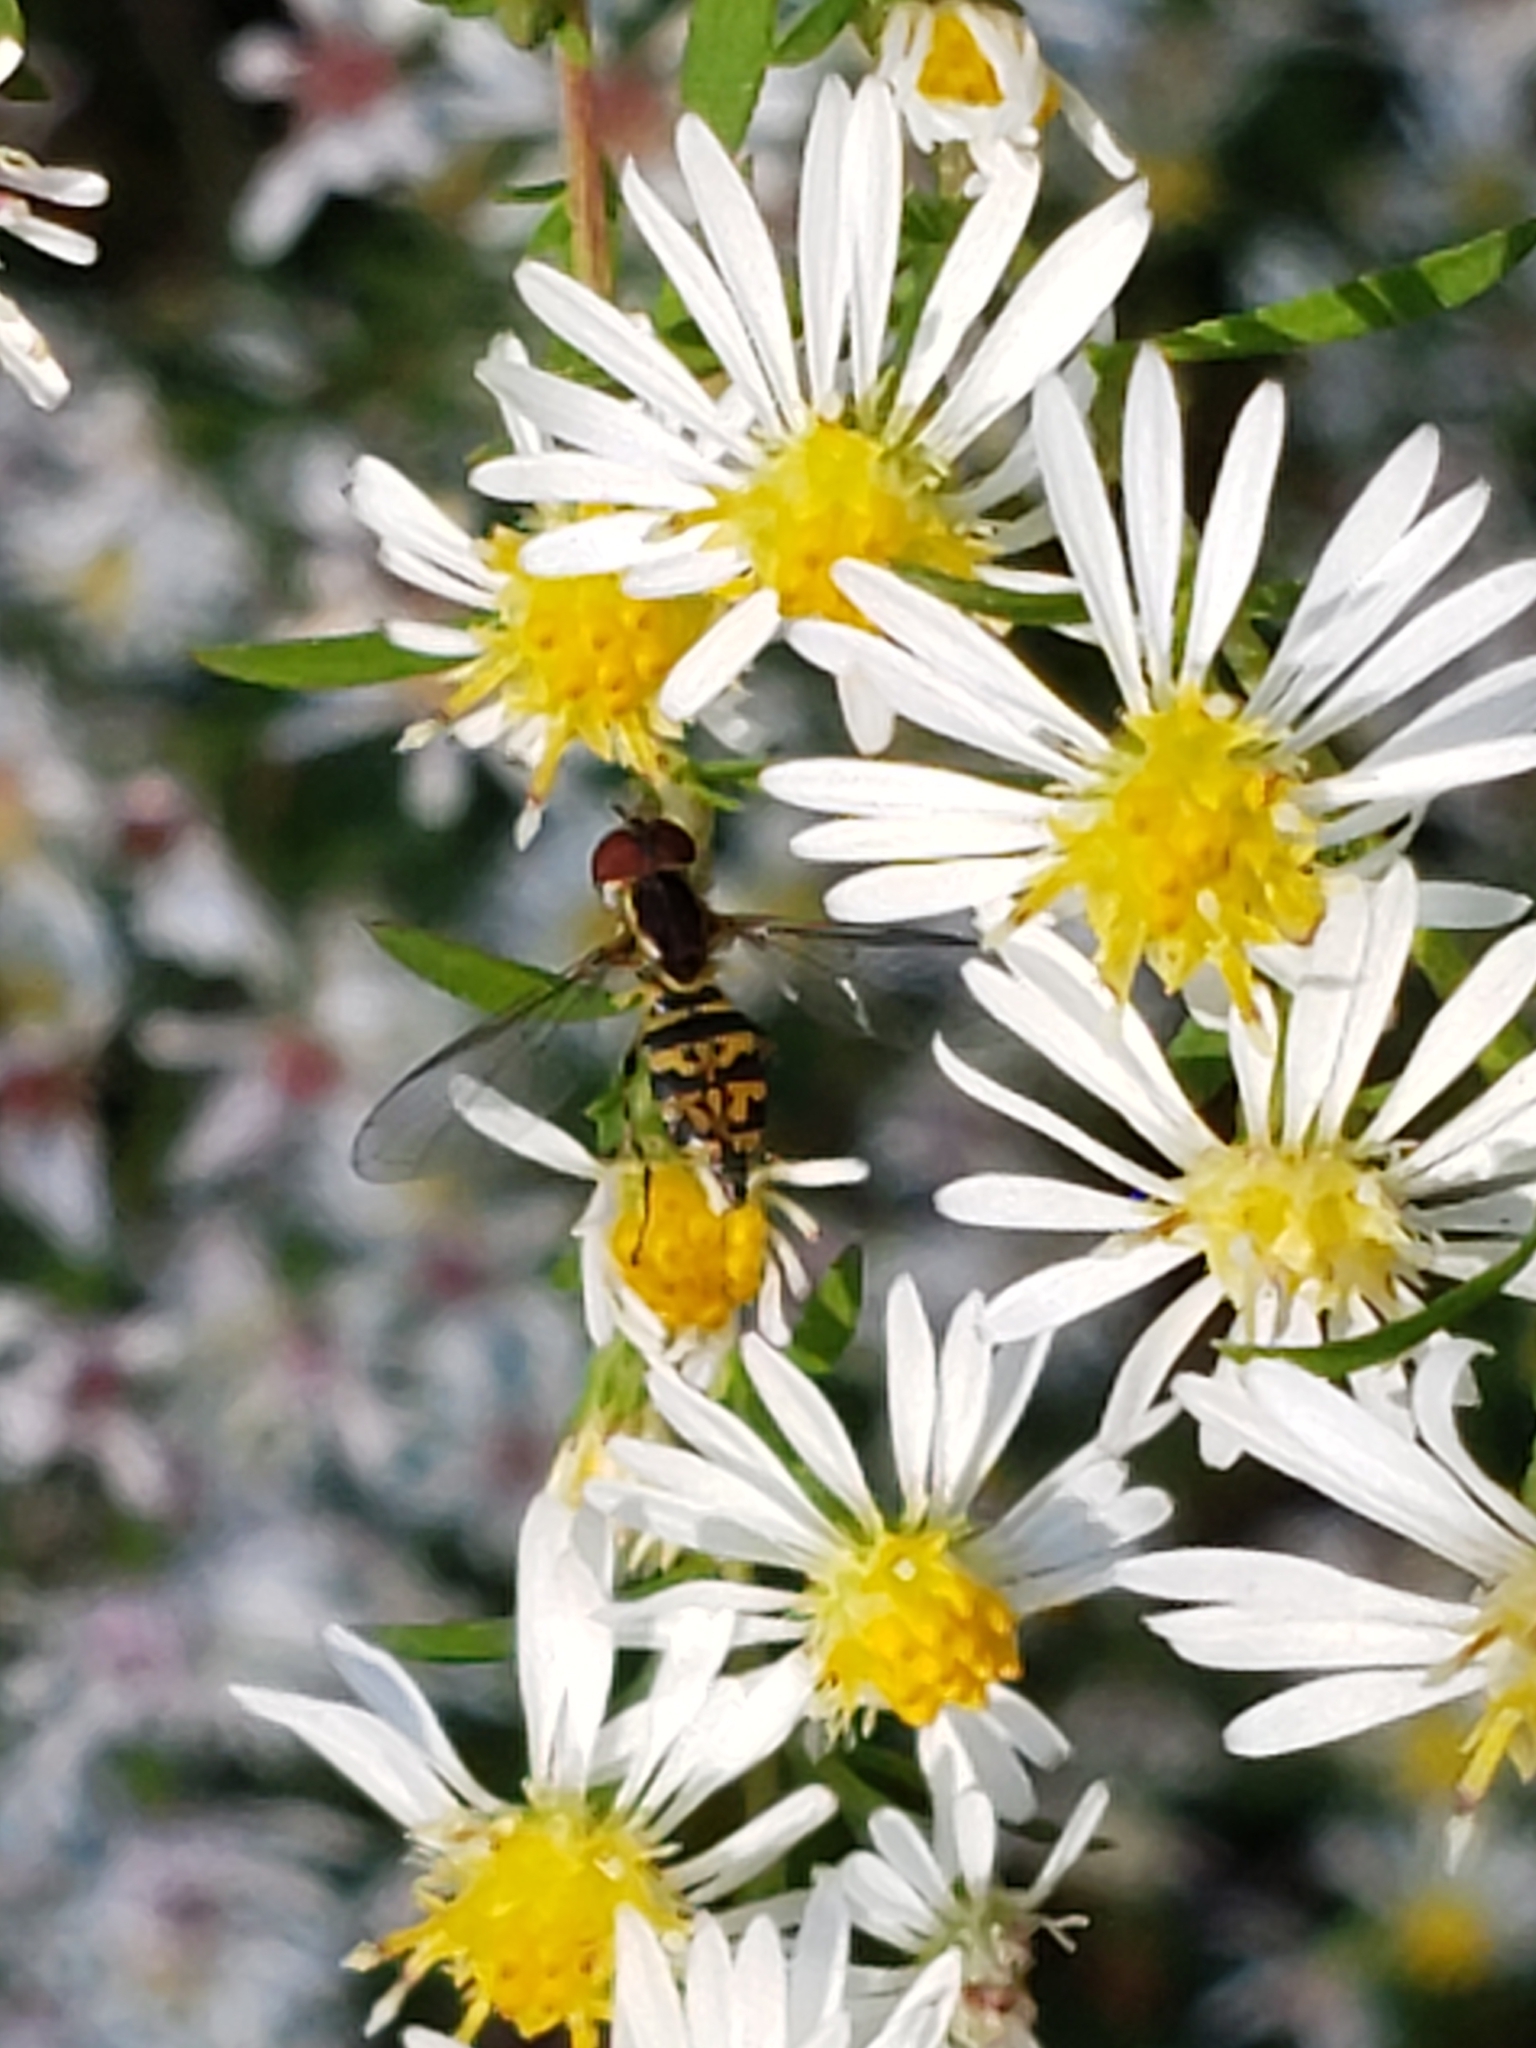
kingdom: Animalia
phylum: Arthropoda
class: Insecta
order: Diptera
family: Syrphidae
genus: Toxomerus
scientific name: Toxomerus geminatus
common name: Eastern calligrapher
